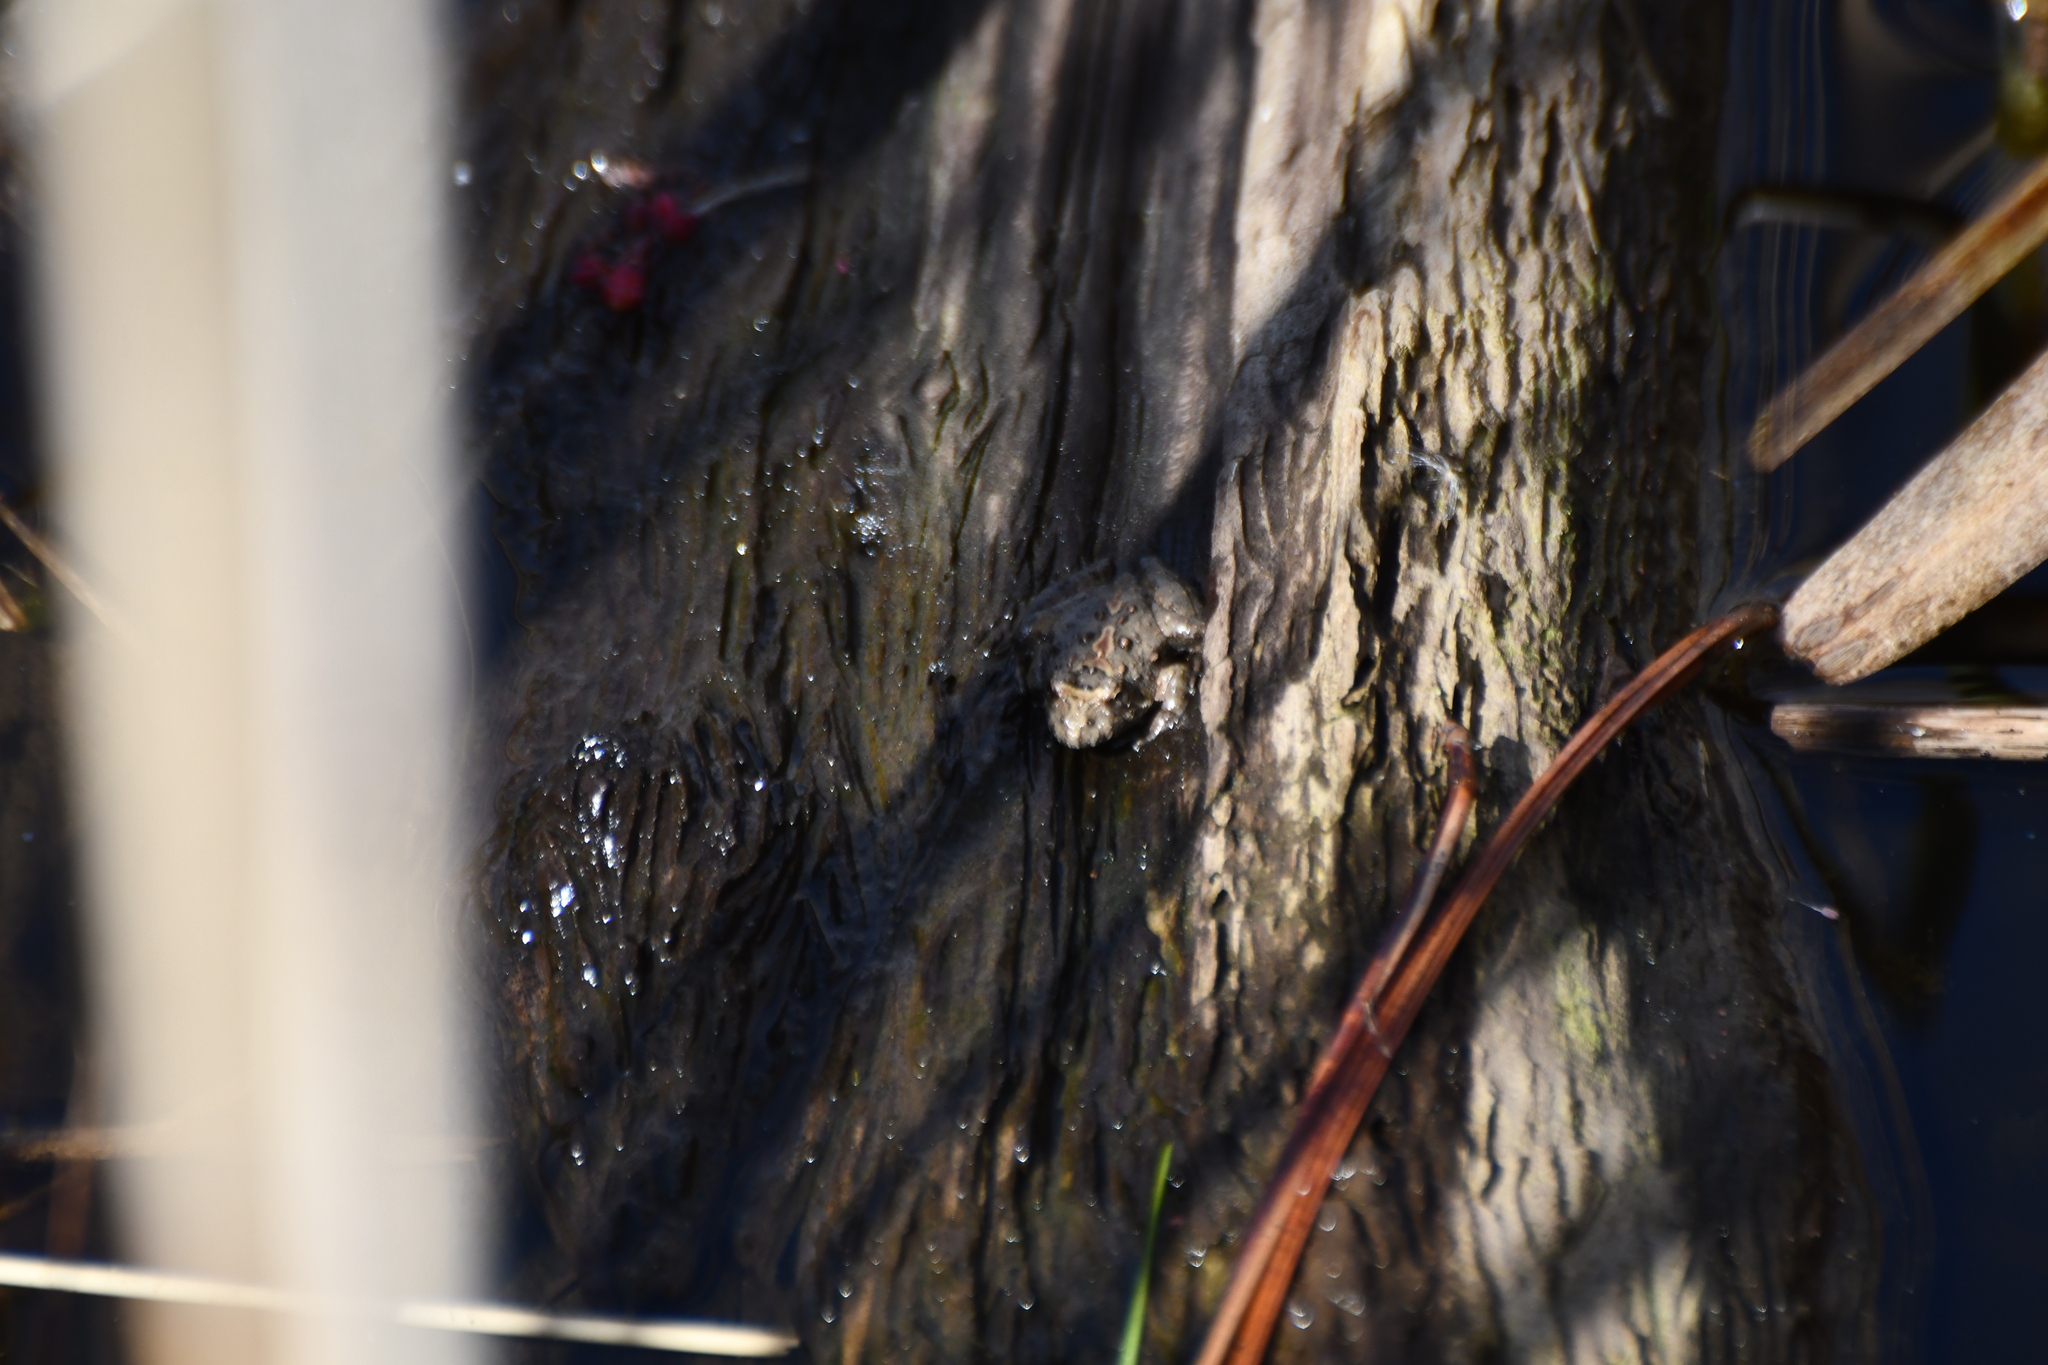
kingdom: Animalia
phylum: Chordata
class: Amphibia
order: Anura
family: Hylidae
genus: Acris
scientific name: Acris crepitans
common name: Northern cricket frog
